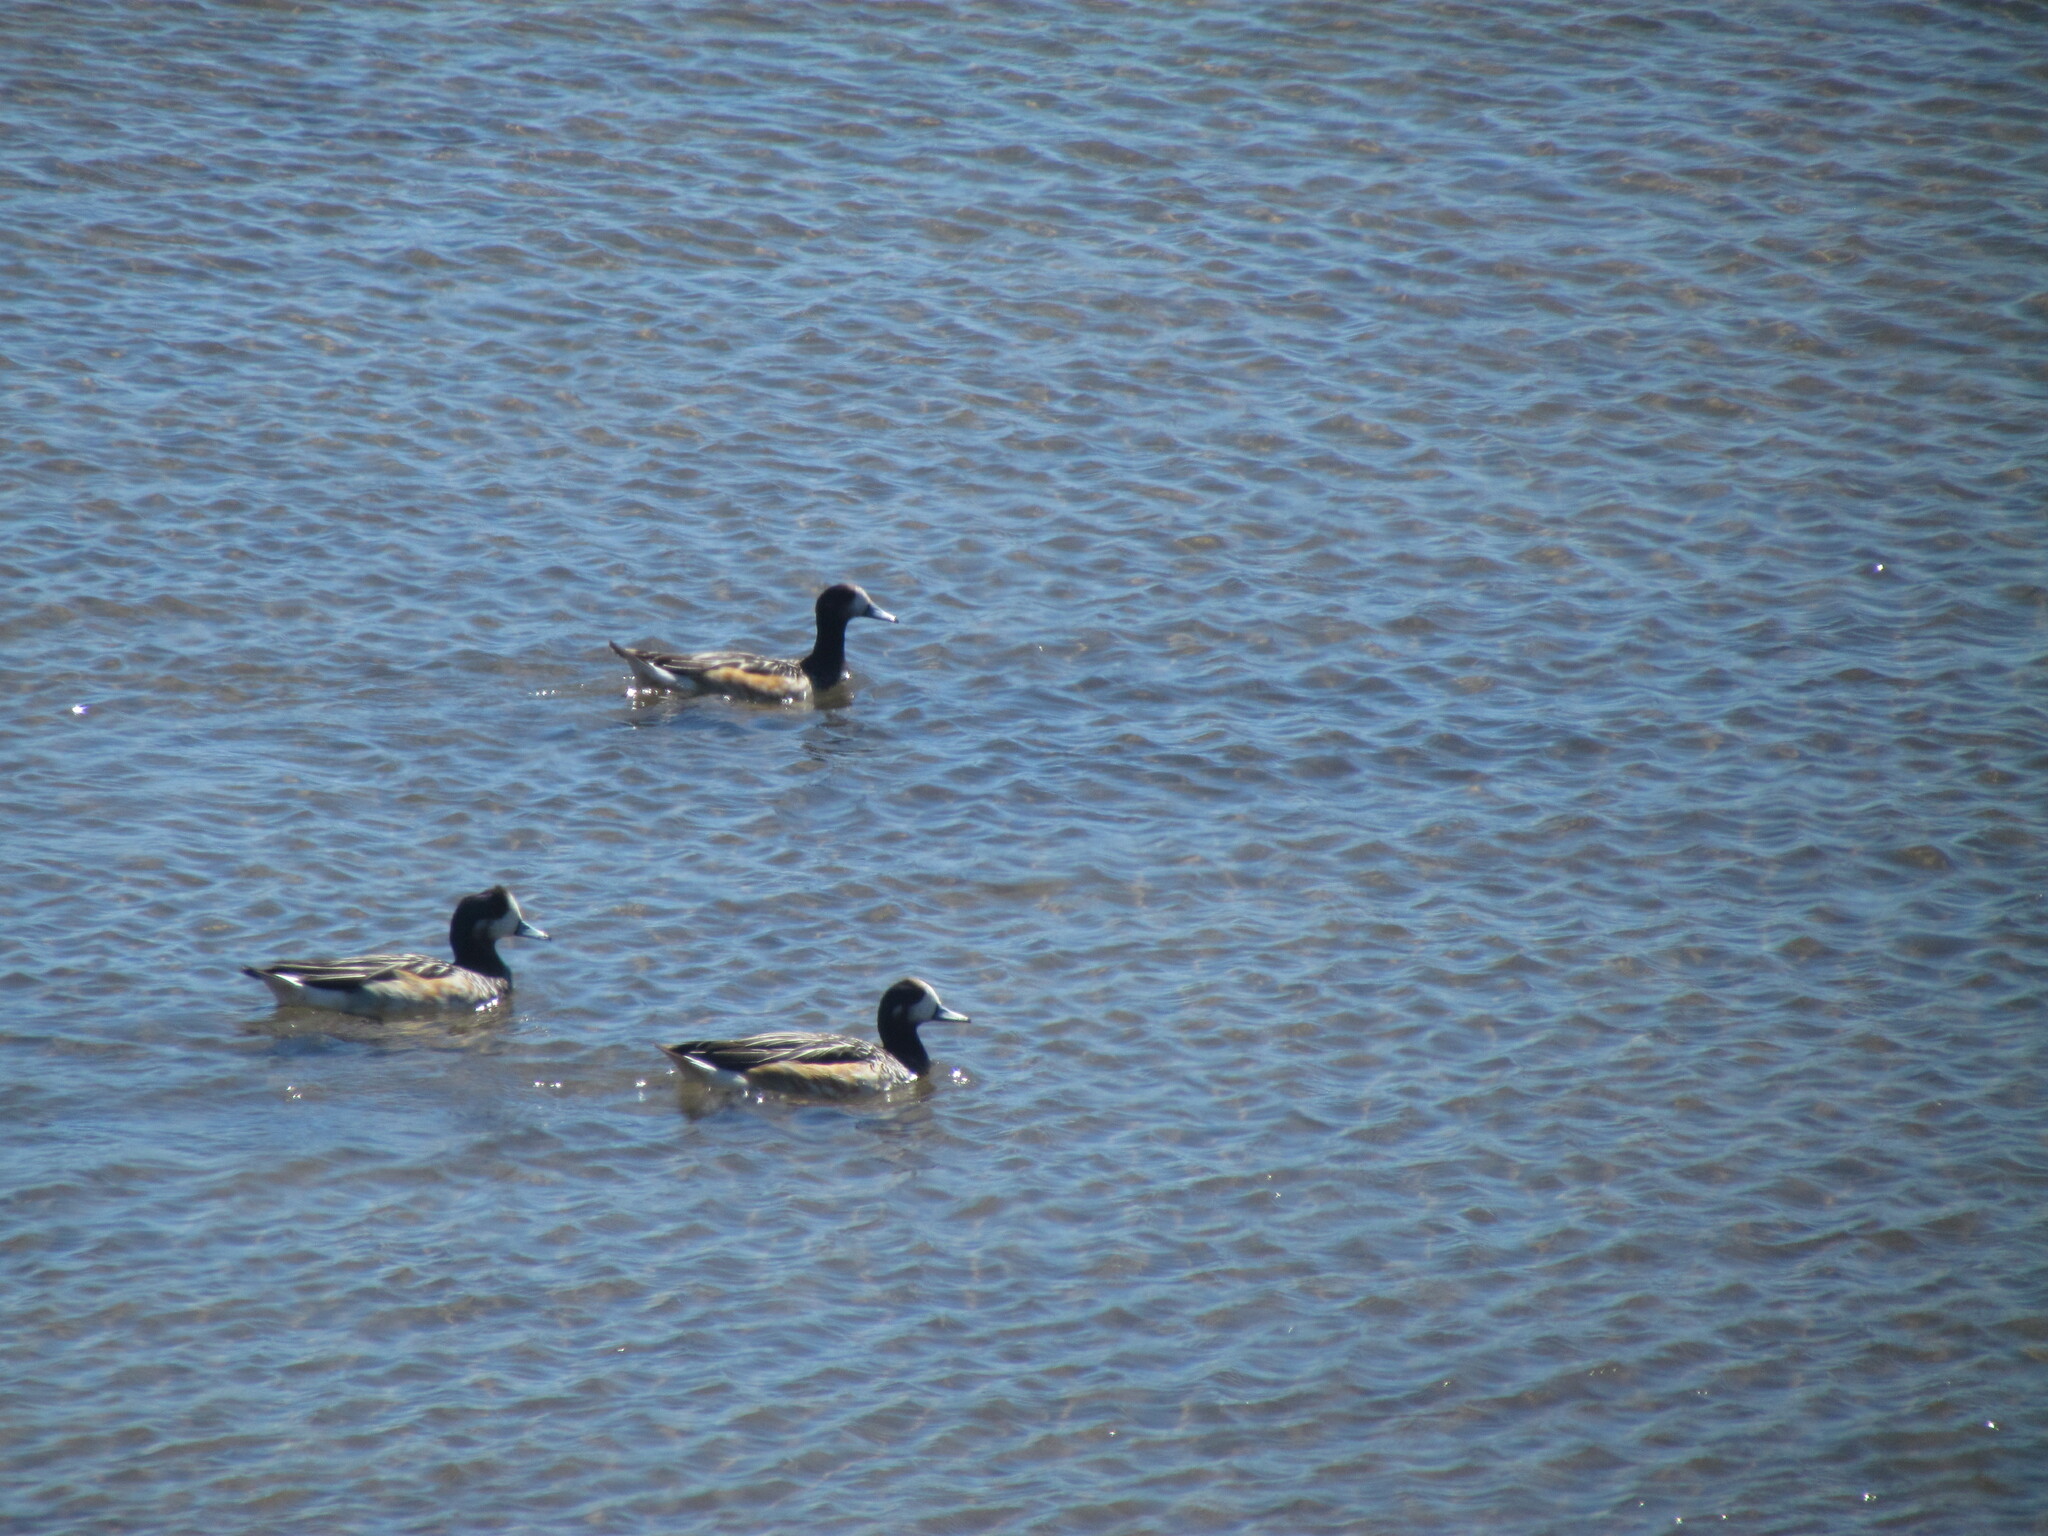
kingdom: Animalia
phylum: Chordata
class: Aves
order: Anseriformes
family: Anatidae
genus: Mareca
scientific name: Mareca sibilatrix
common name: Chiloe wigeon
